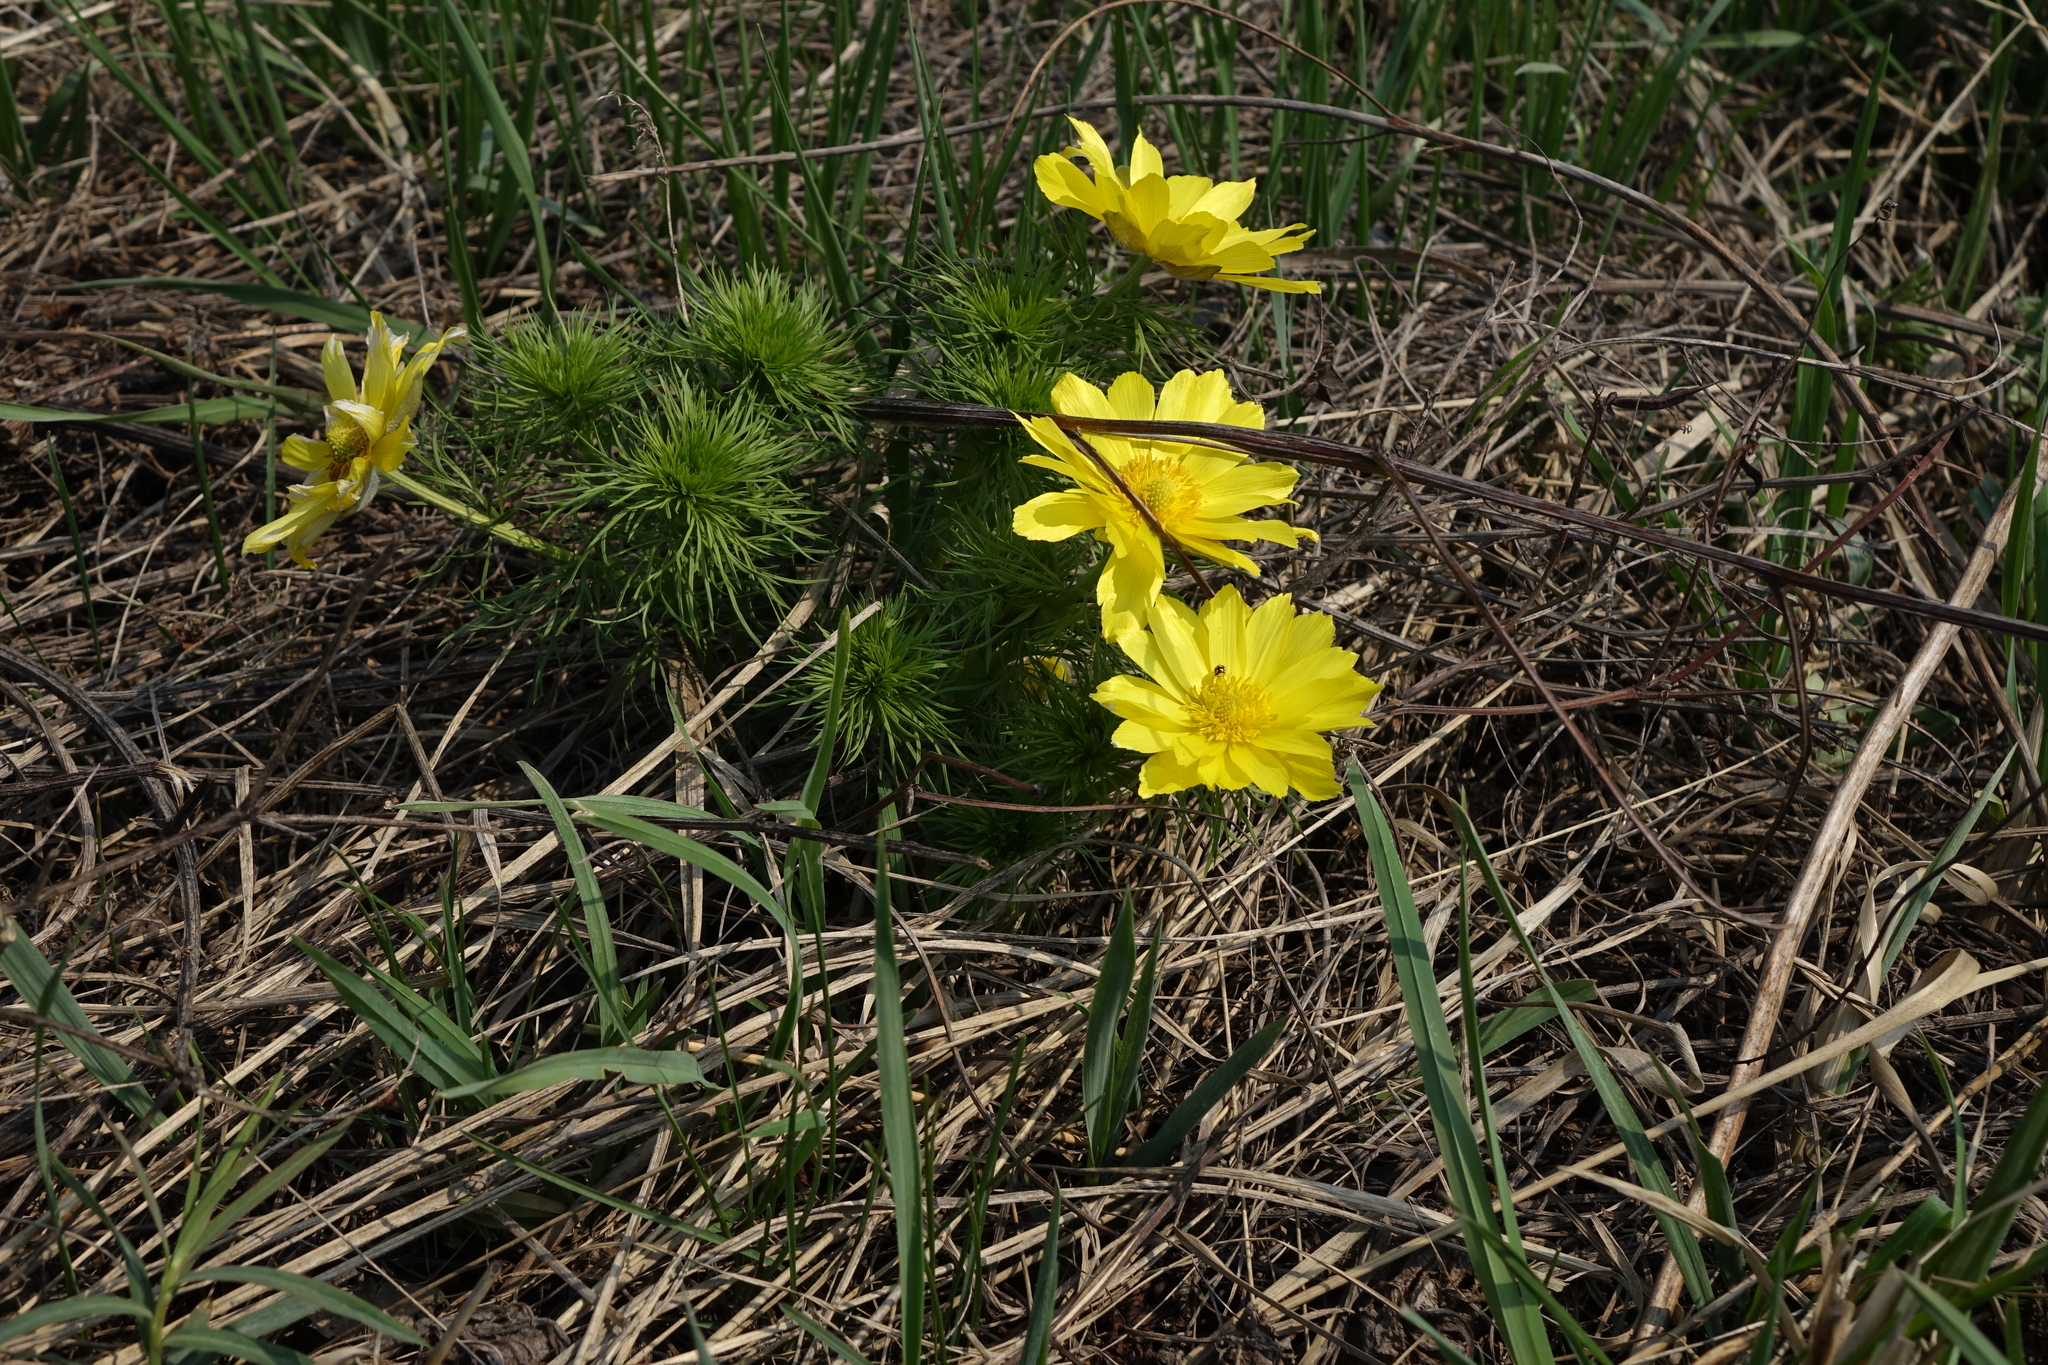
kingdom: Plantae
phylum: Tracheophyta
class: Magnoliopsida
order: Ranunculales
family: Ranunculaceae
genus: Adonis
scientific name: Adonis vernalis
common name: Yellow pheasants-eye
